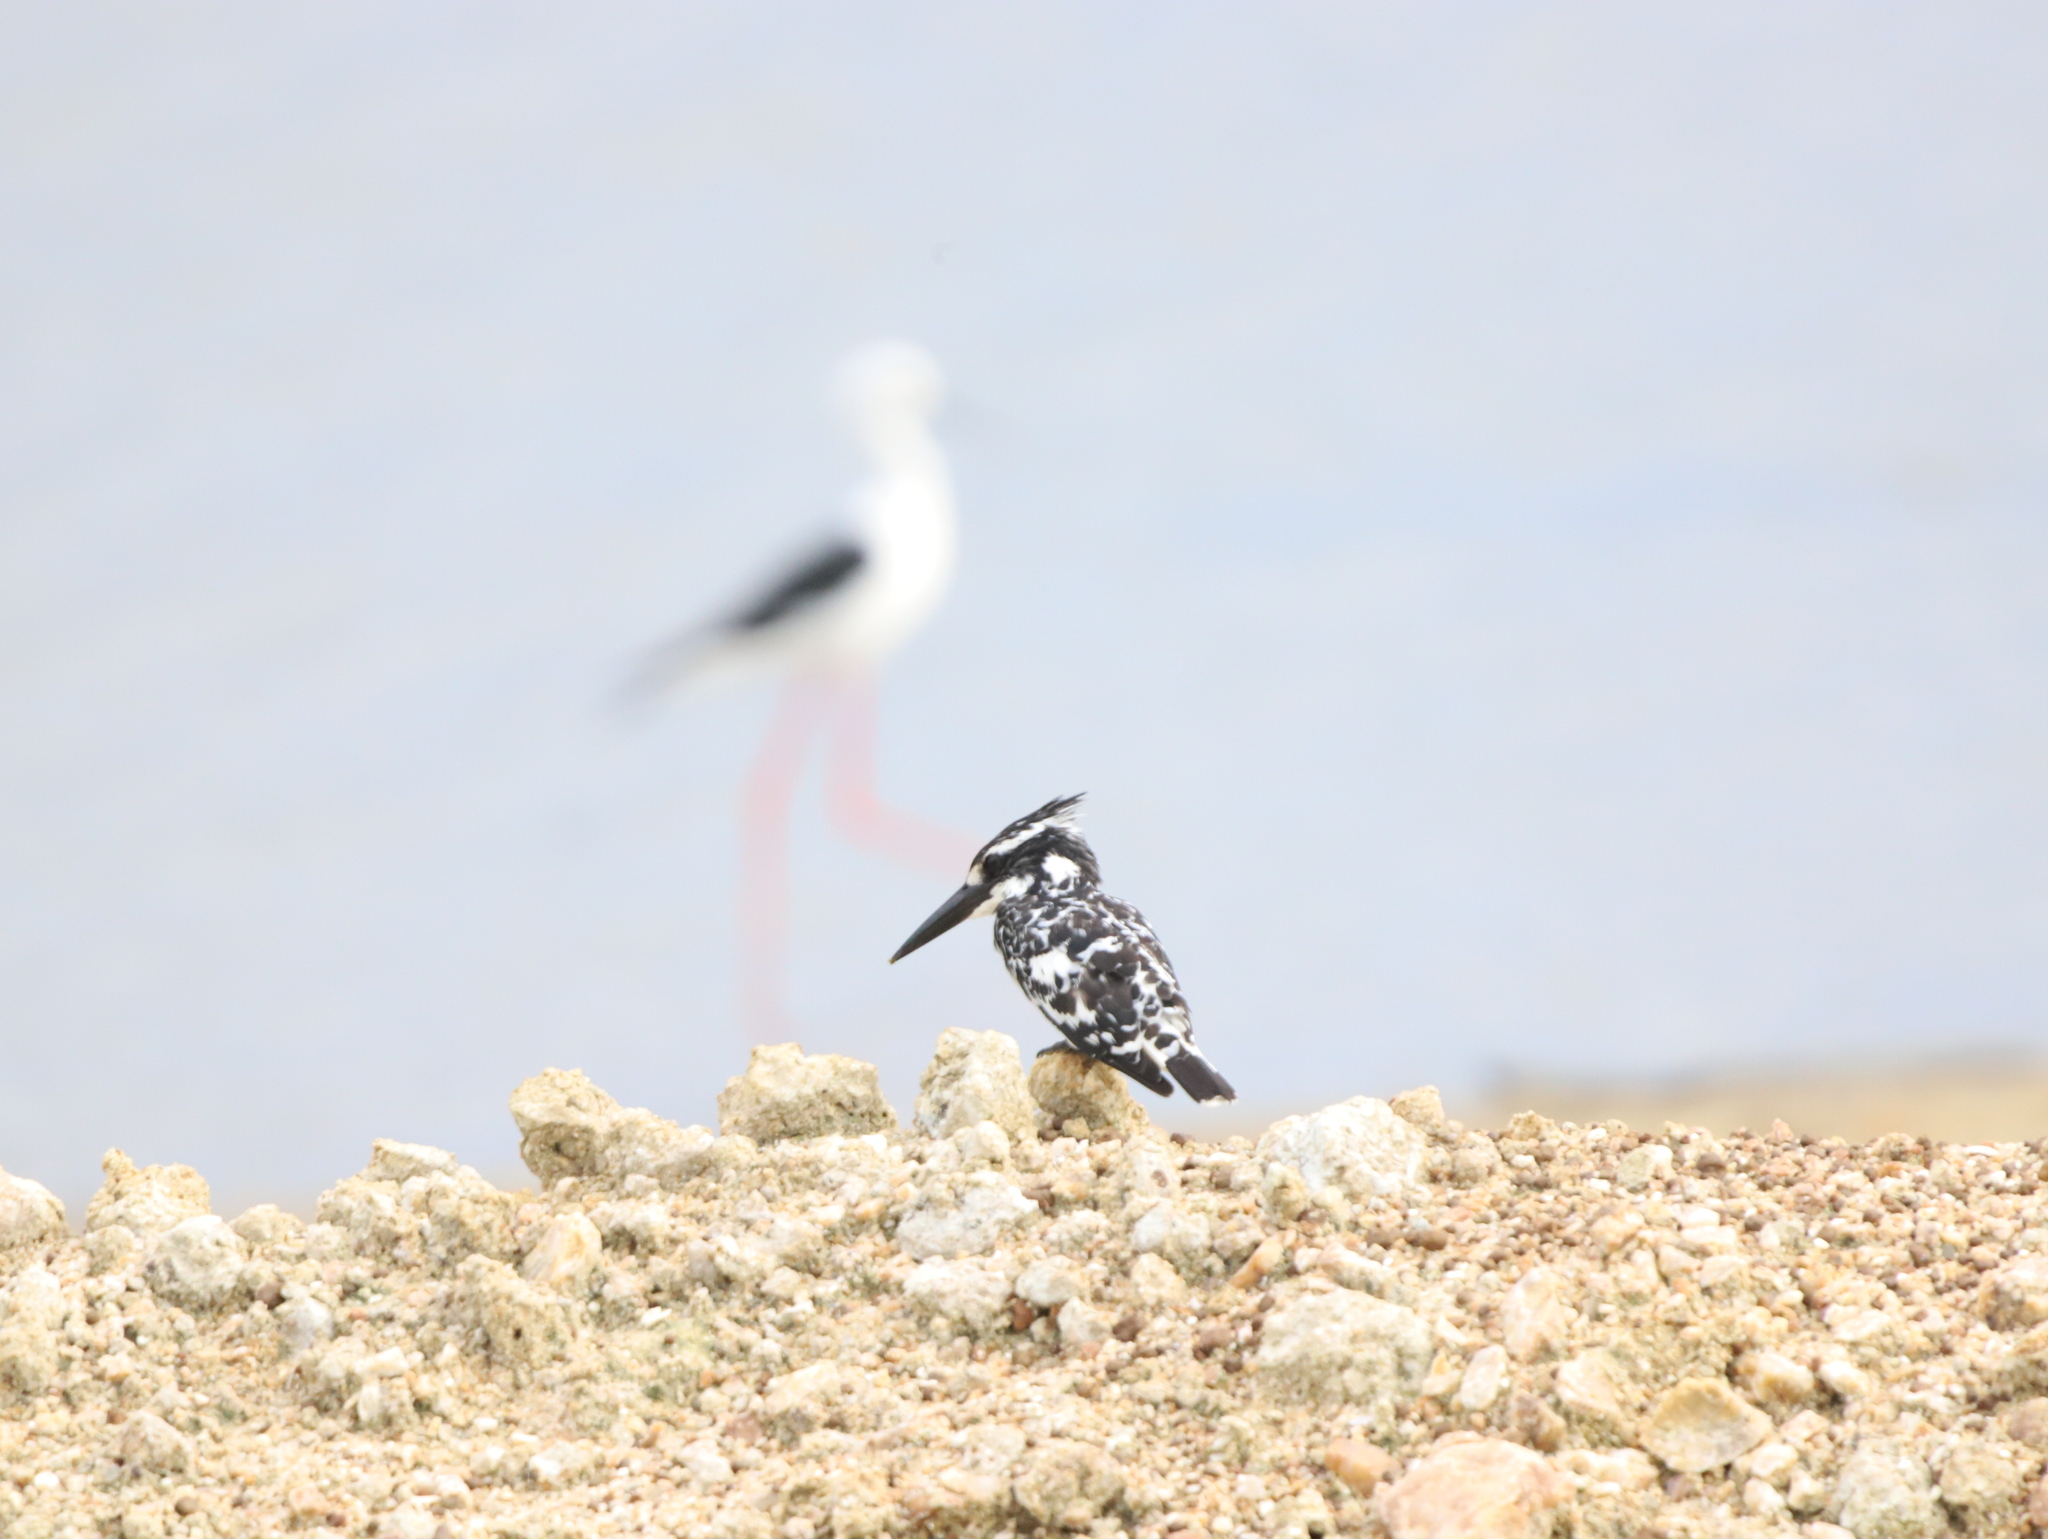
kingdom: Animalia
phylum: Chordata
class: Aves
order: Coraciiformes
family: Alcedinidae
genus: Ceryle
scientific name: Ceryle rudis
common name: Pied kingfisher
